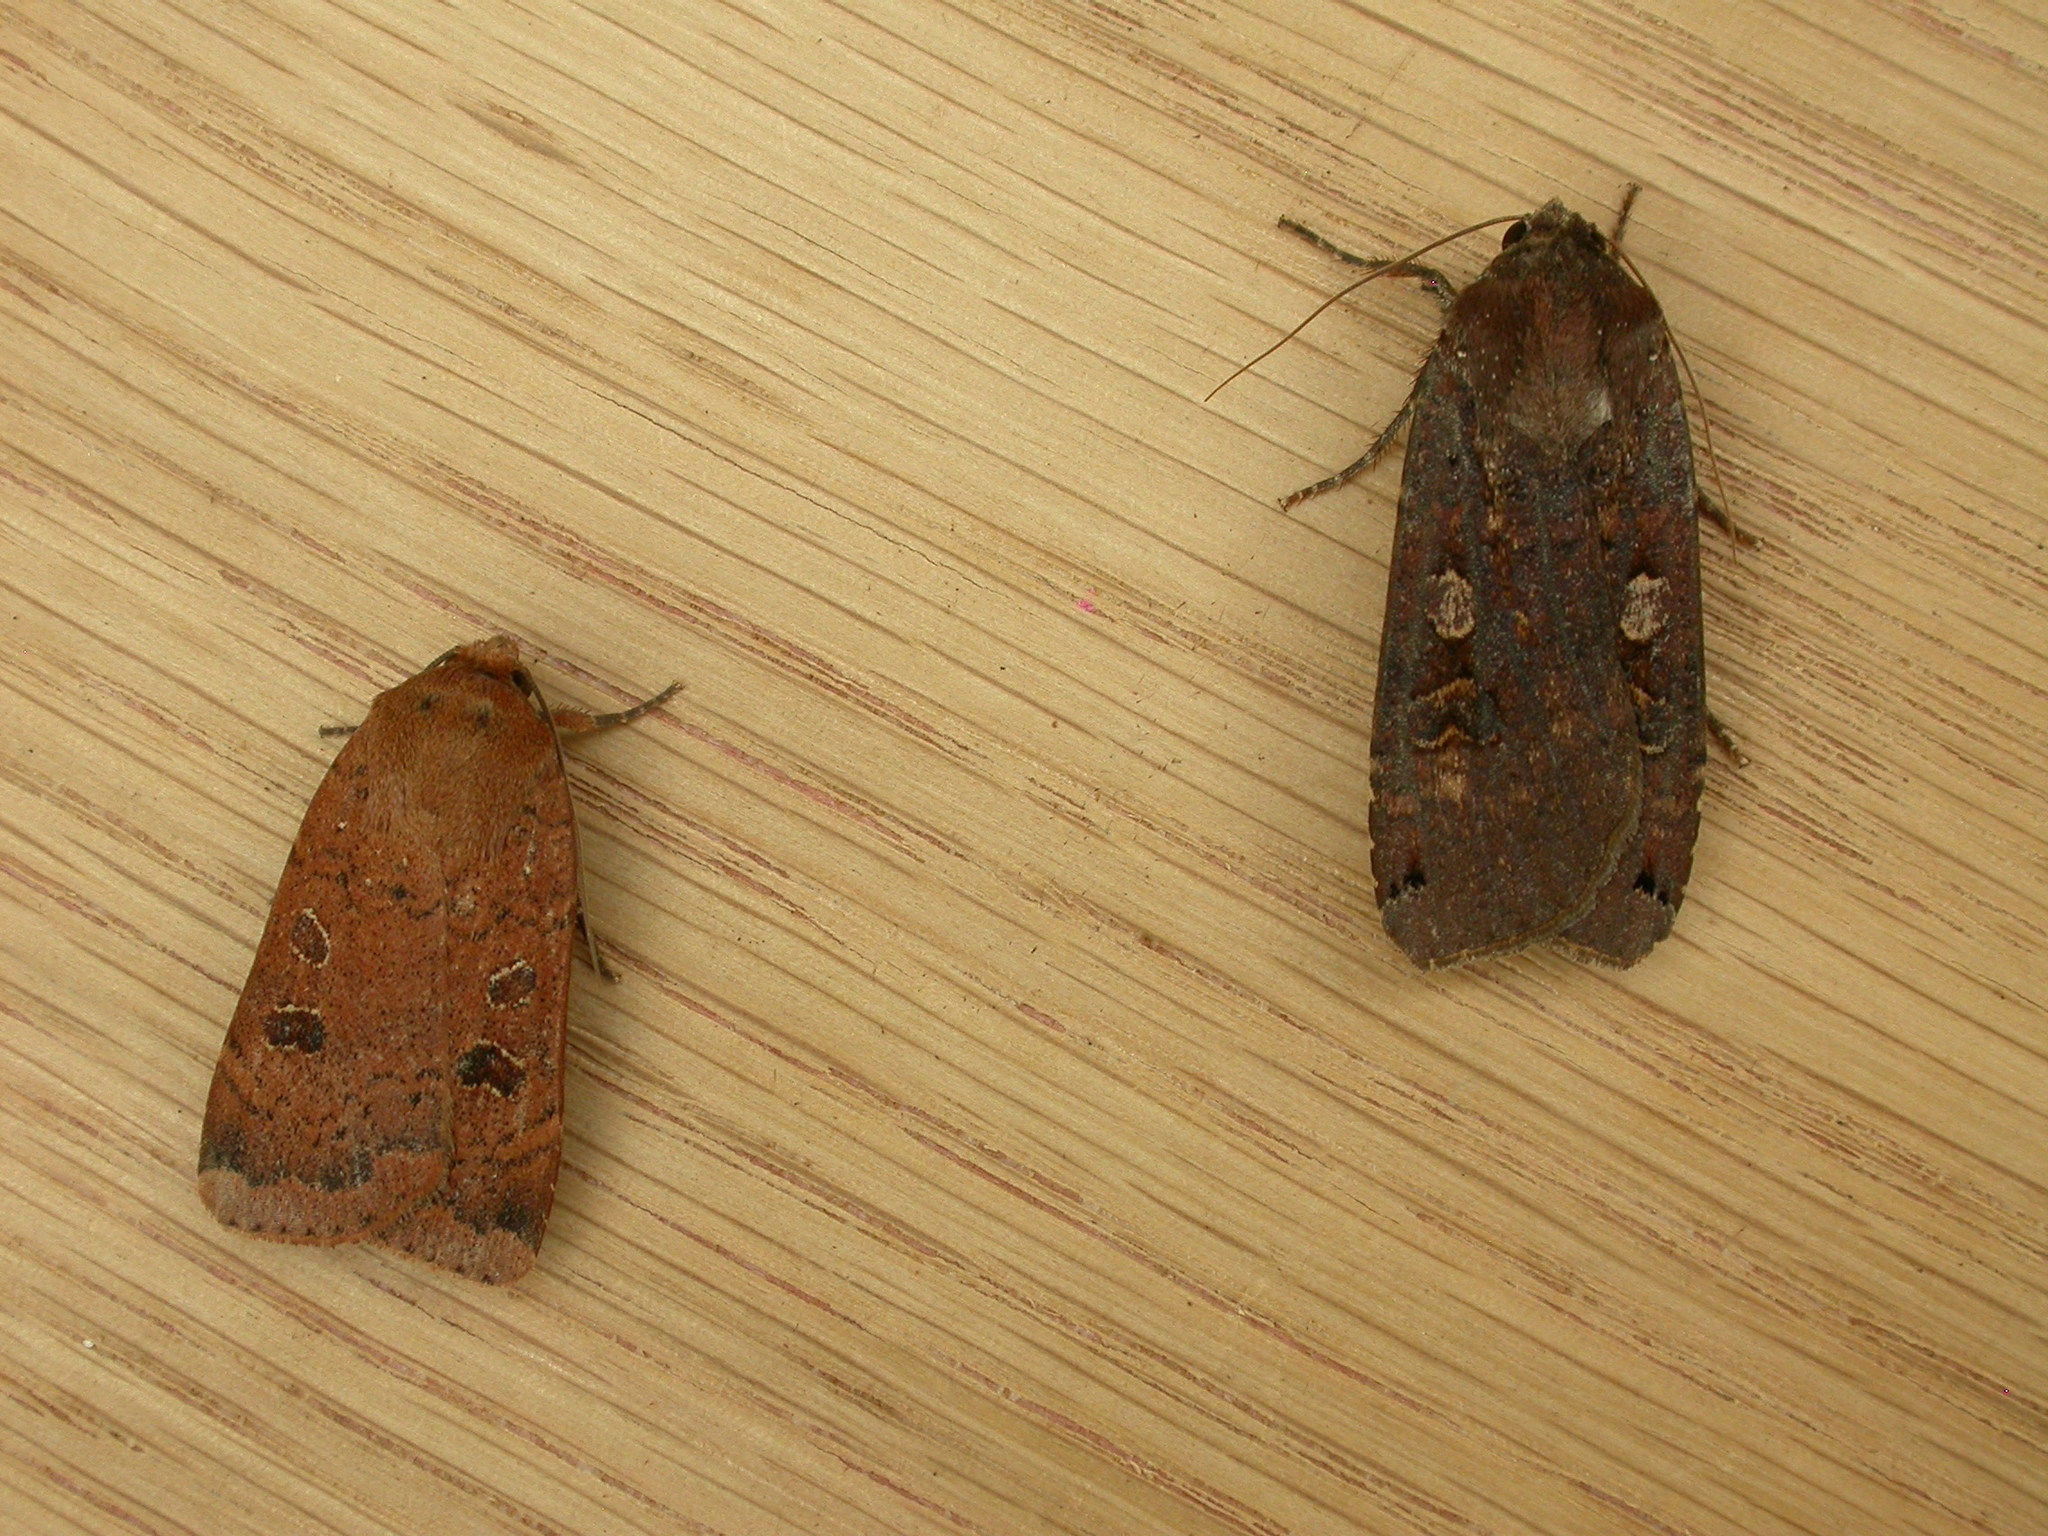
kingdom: Animalia
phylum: Arthropoda
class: Insecta
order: Lepidoptera
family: Noctuidae
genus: Noctua
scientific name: Noctua pronuba
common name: Large yellow underwing
